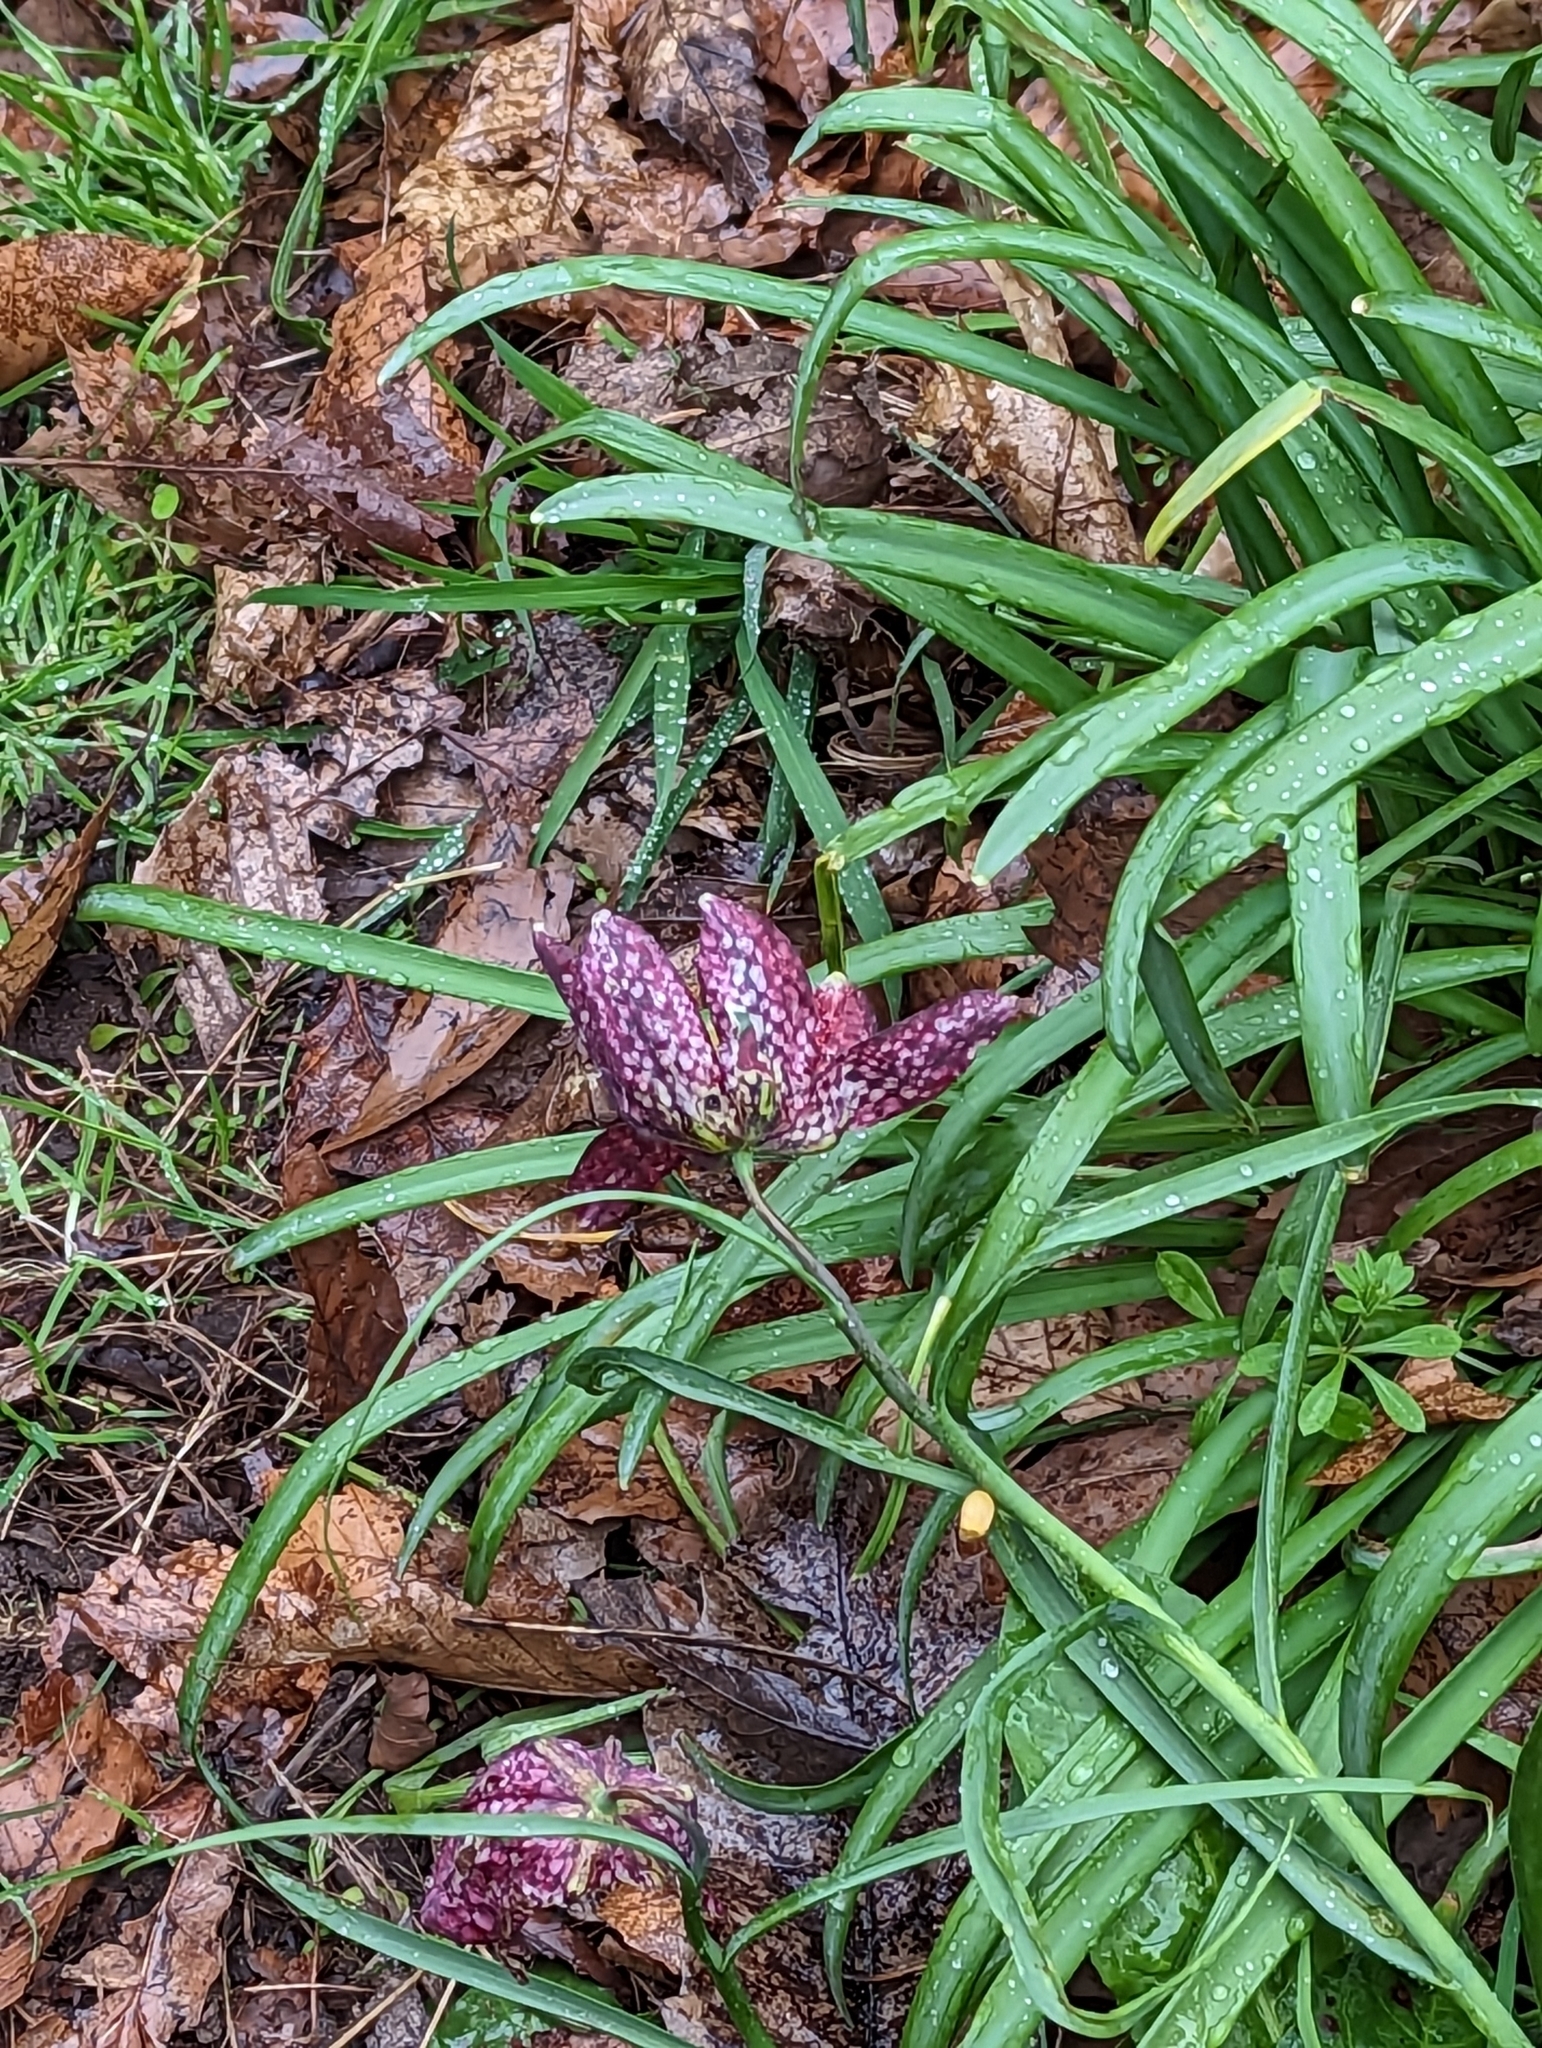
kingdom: Plantae
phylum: Tracheophyta
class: Liliopsida
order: Liliales
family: Liliaceae
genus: Fritillaria
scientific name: Fritillaria meleagris
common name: Fritillary
